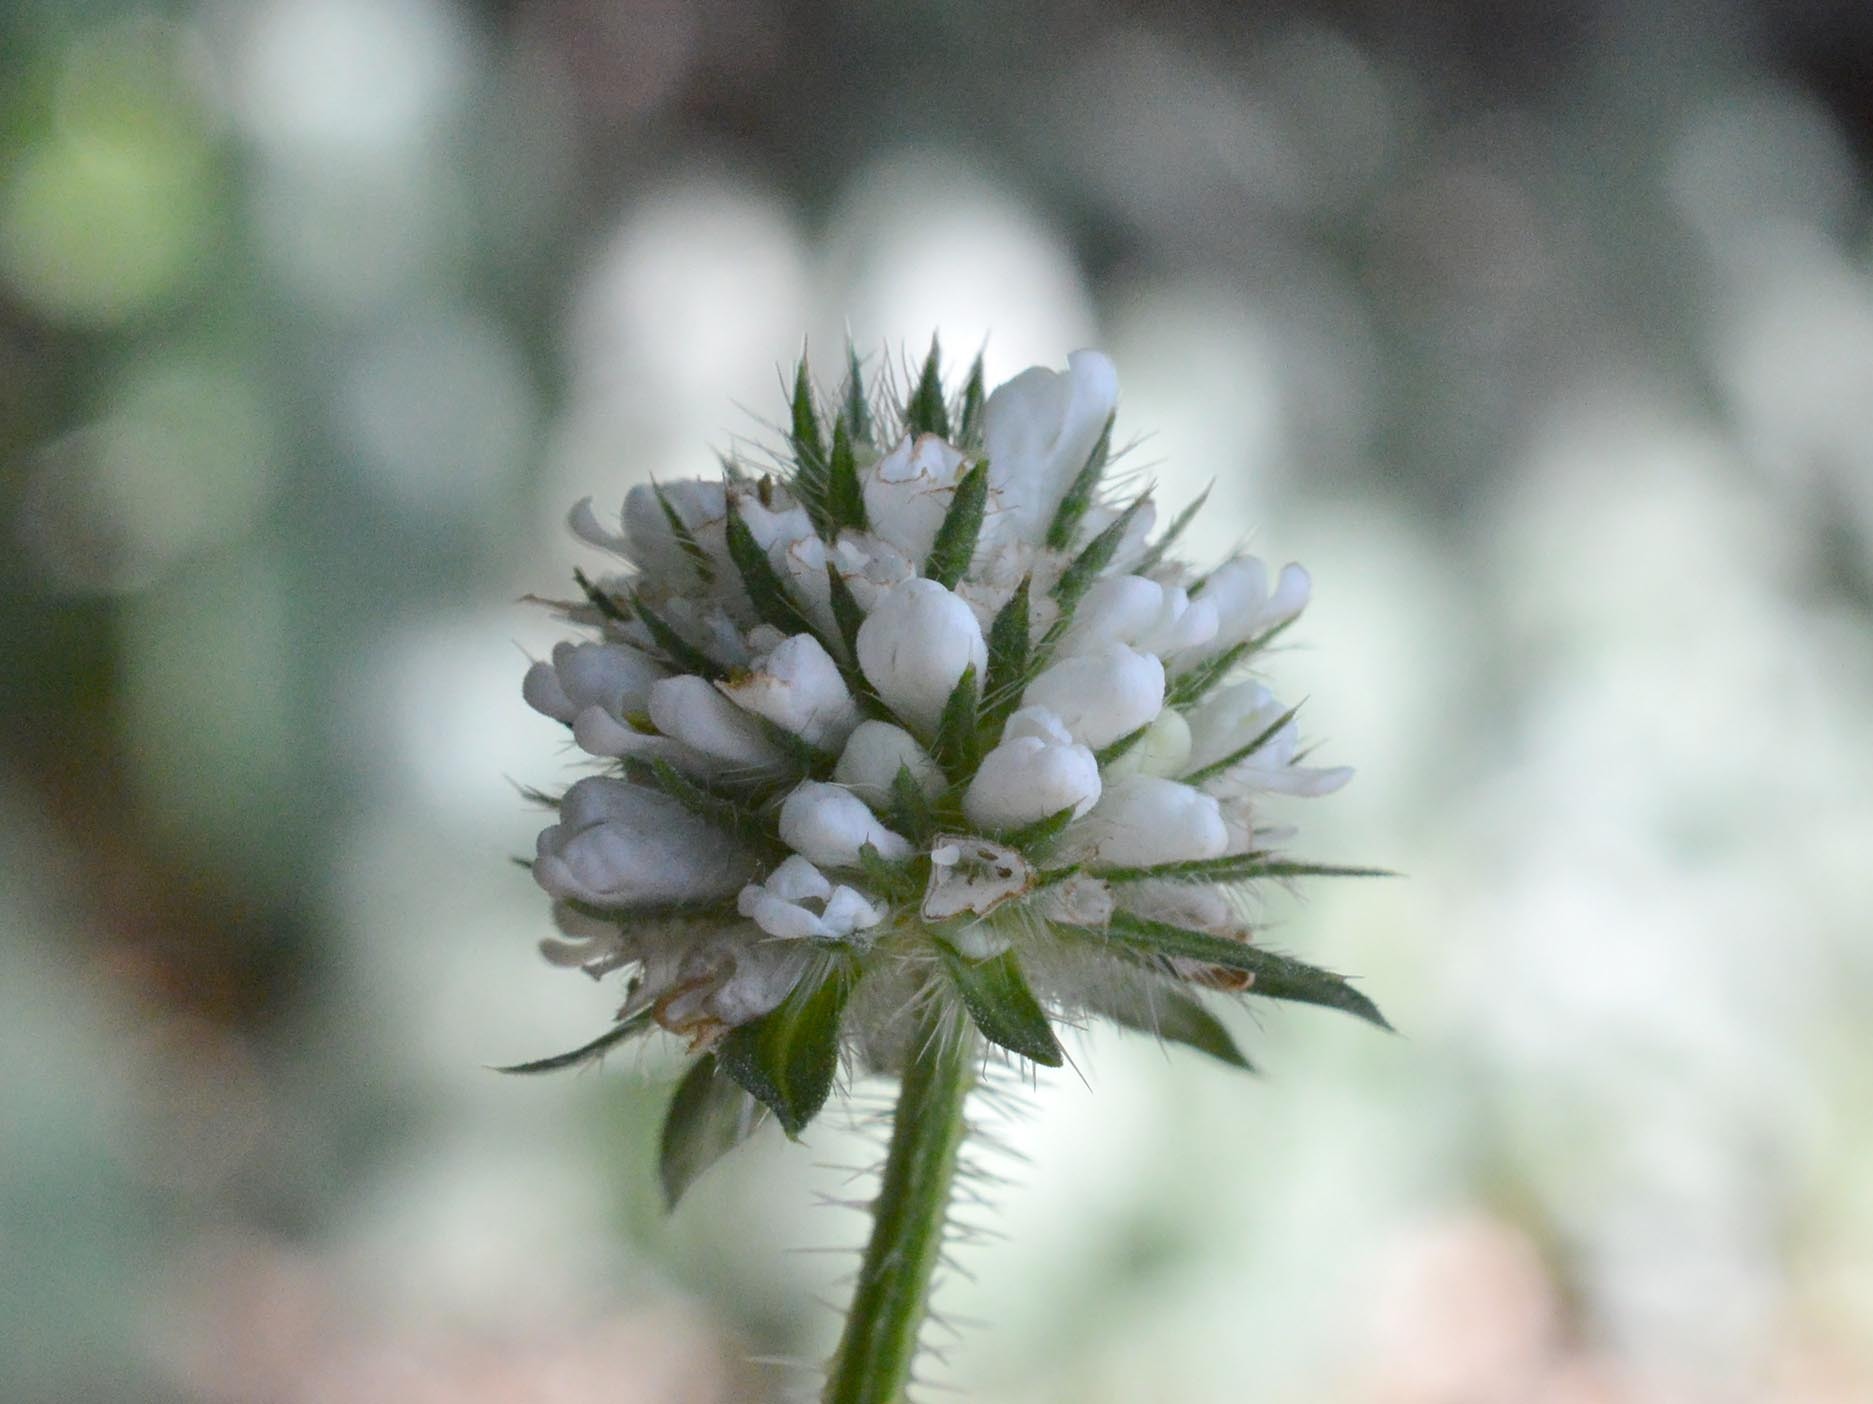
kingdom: Plantae
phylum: Tracheophyta
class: Magnoliopsida
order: Dipsacales
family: Caprifoliaceae
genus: Dipsacus
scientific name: Dipsacus pilosus
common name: Small teasel
